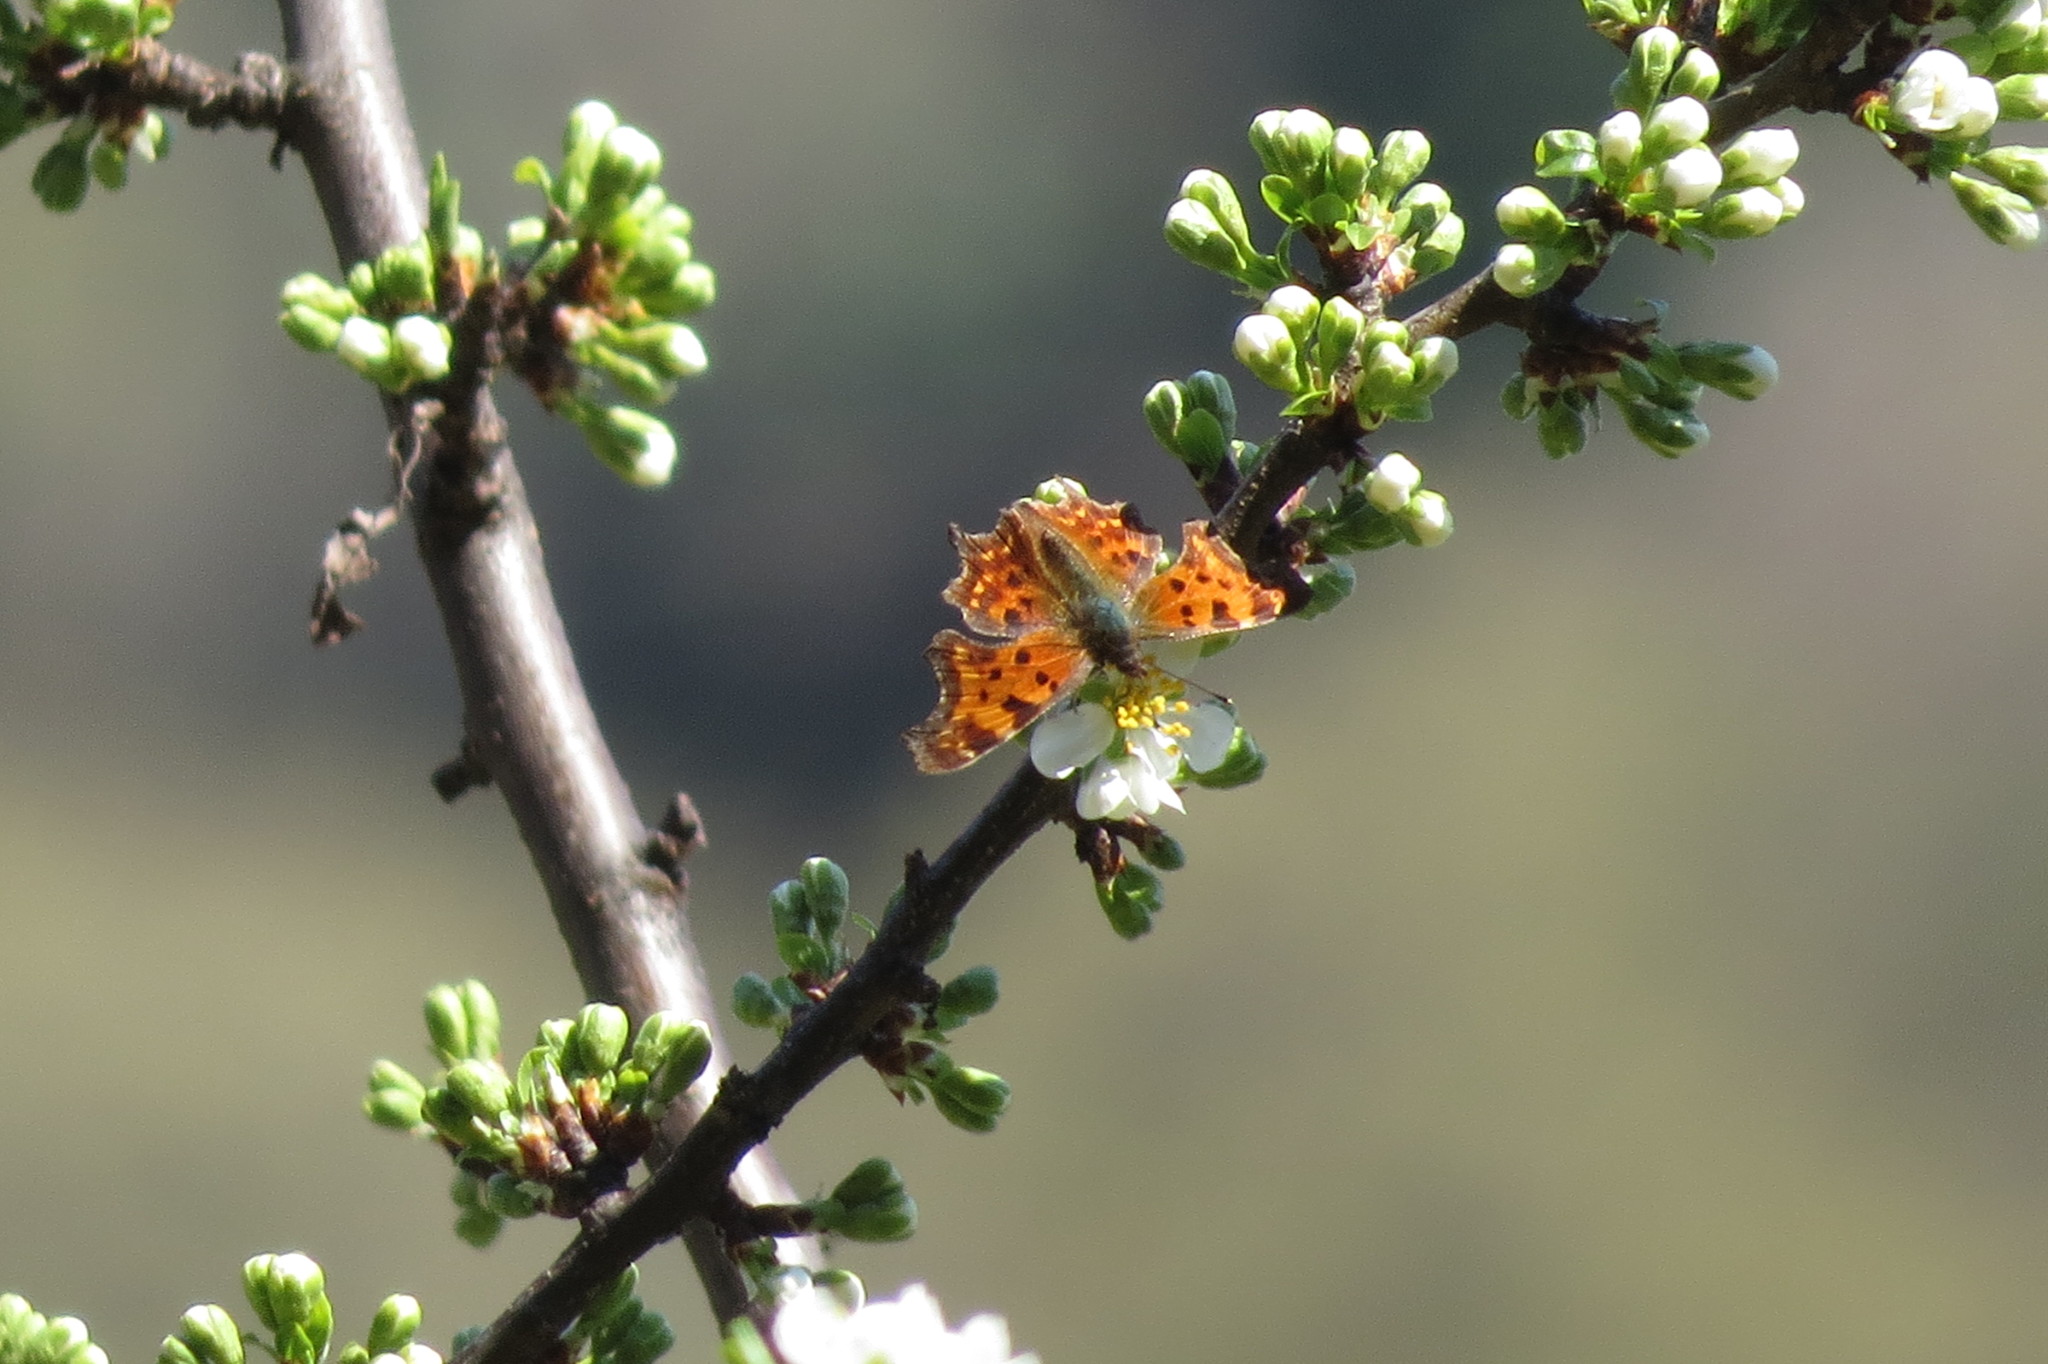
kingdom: Animalia
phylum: Arthropoda
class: Insecta
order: Lepidoptera
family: Nymphalidae
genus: Polygonia
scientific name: Polygonia c-album
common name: Comma
